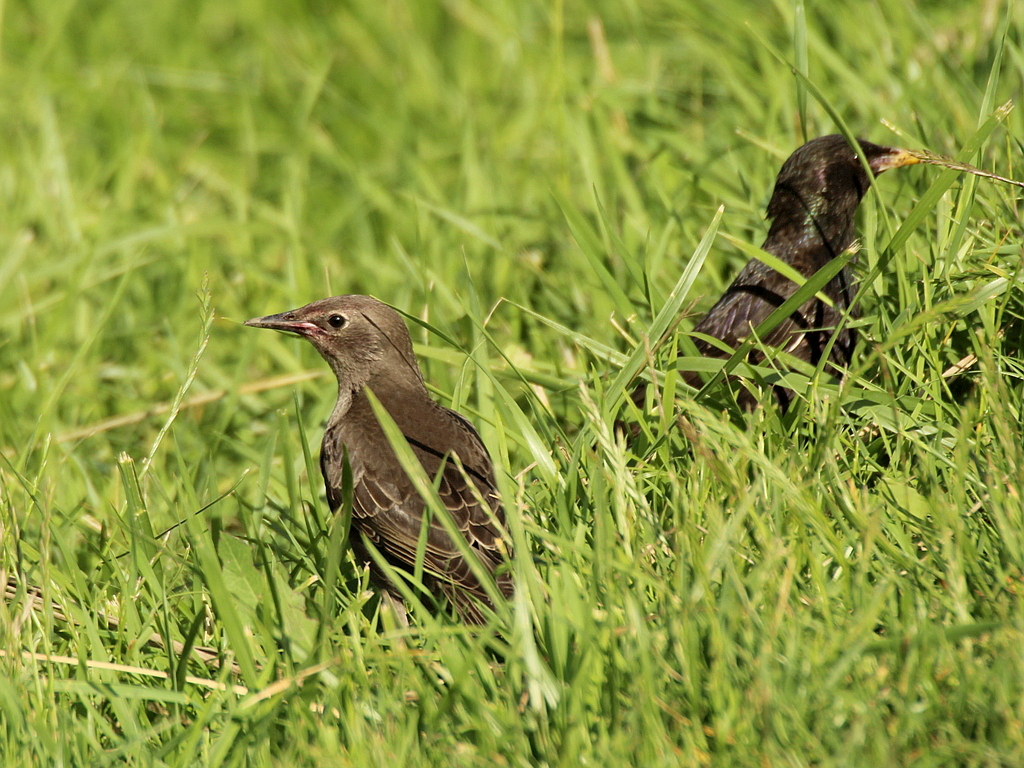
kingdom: Animalia
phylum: Chordata
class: Aves
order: Passeriformes
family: Sturnidae
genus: Sturnus
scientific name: Sturnus vulgaris
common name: Common starling
